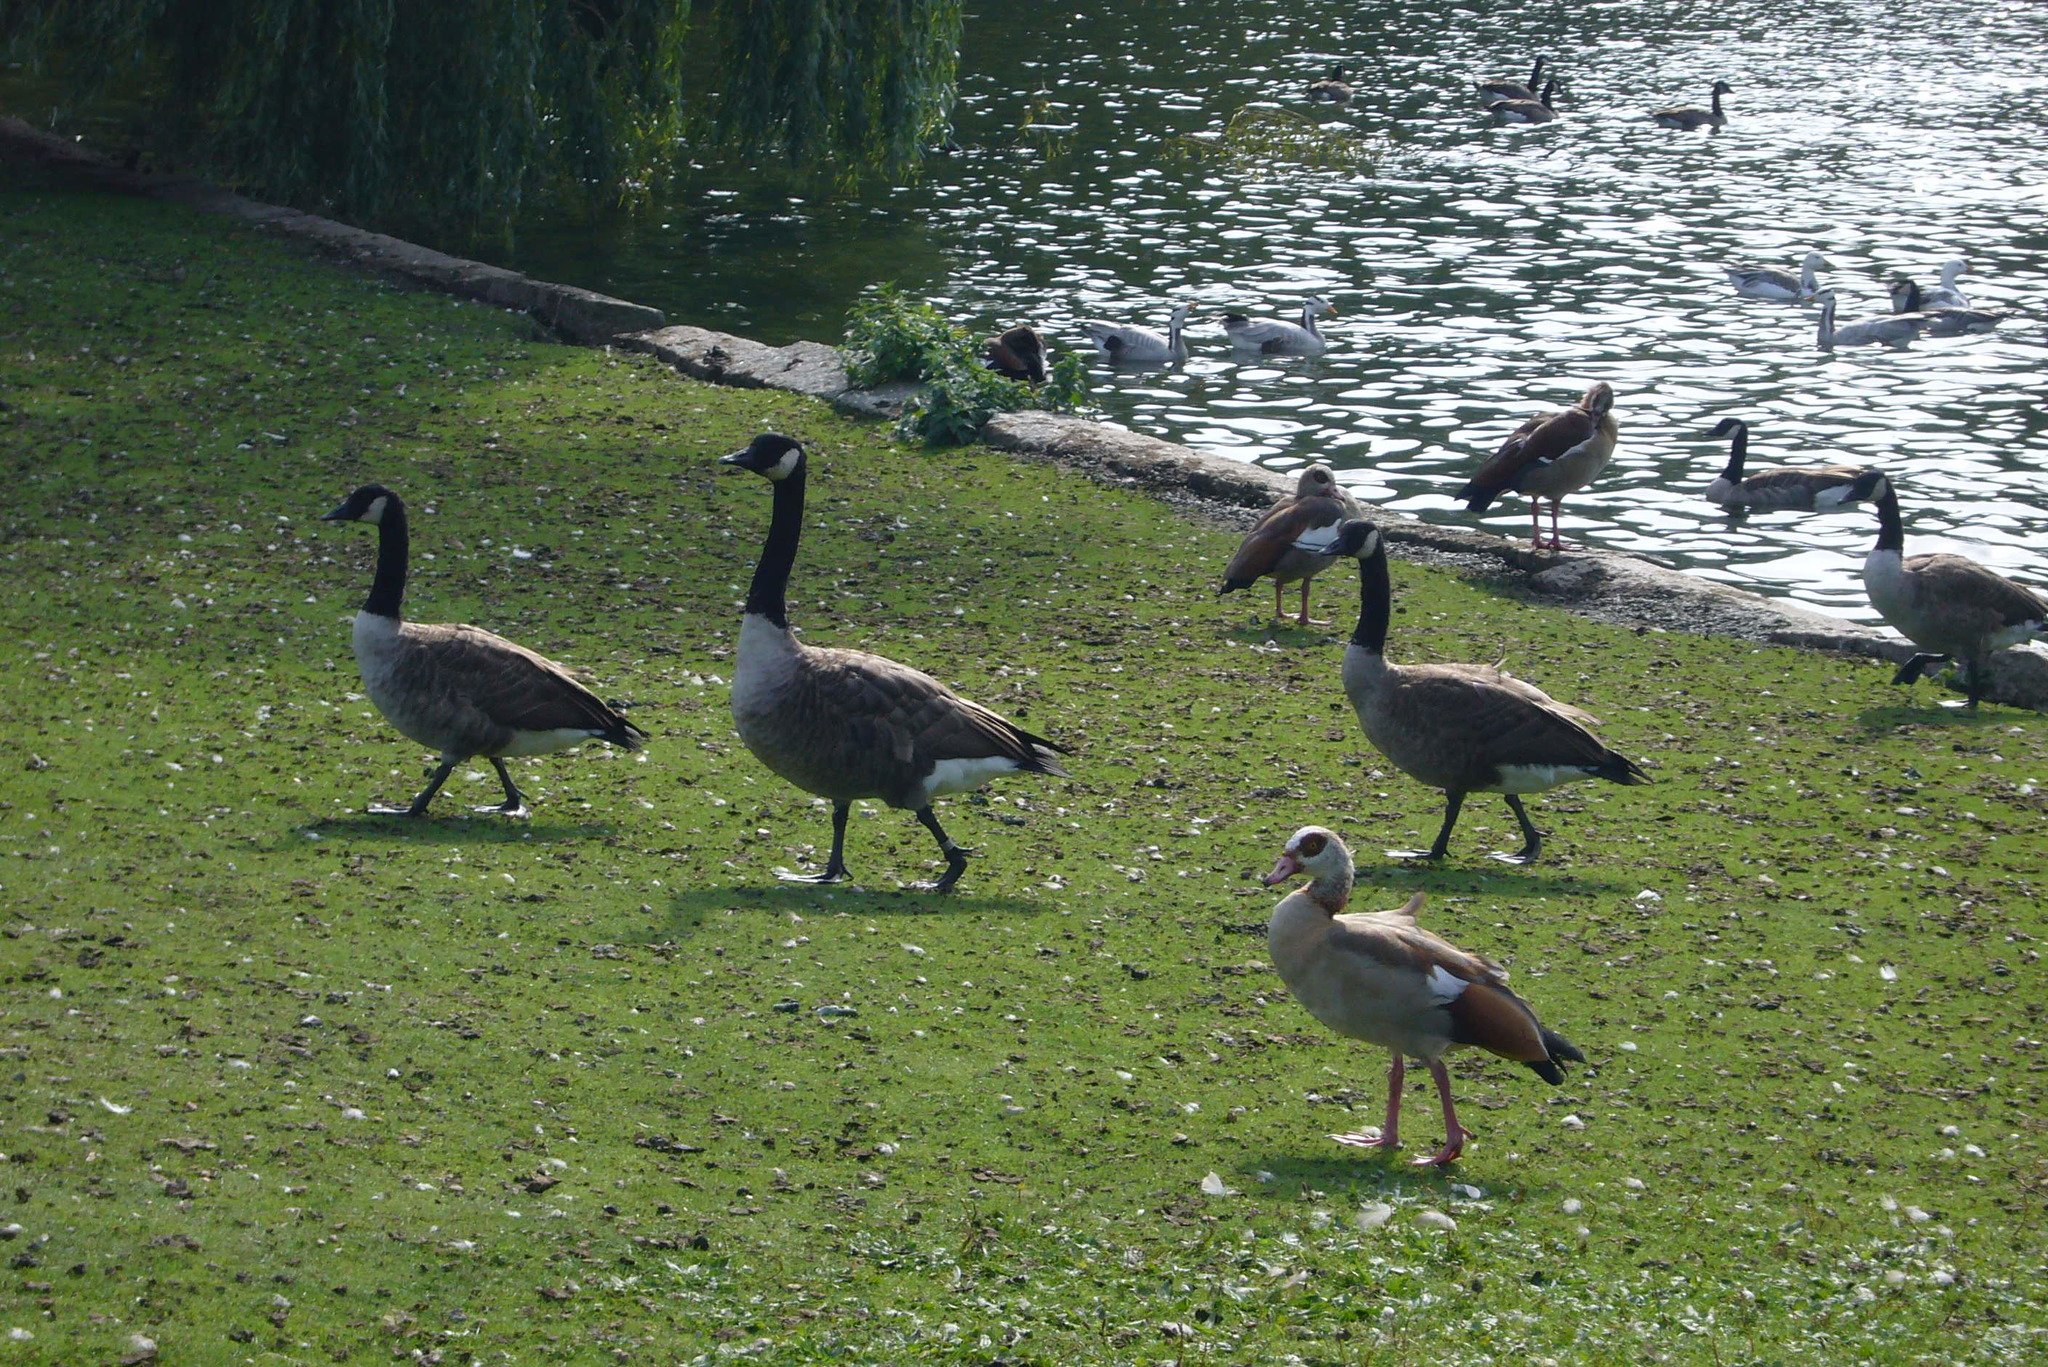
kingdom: Animalia
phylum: Chordata
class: Aves
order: Anseriformes
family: Anatidae
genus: Branta
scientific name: Branta canadensis
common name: Canada goose
